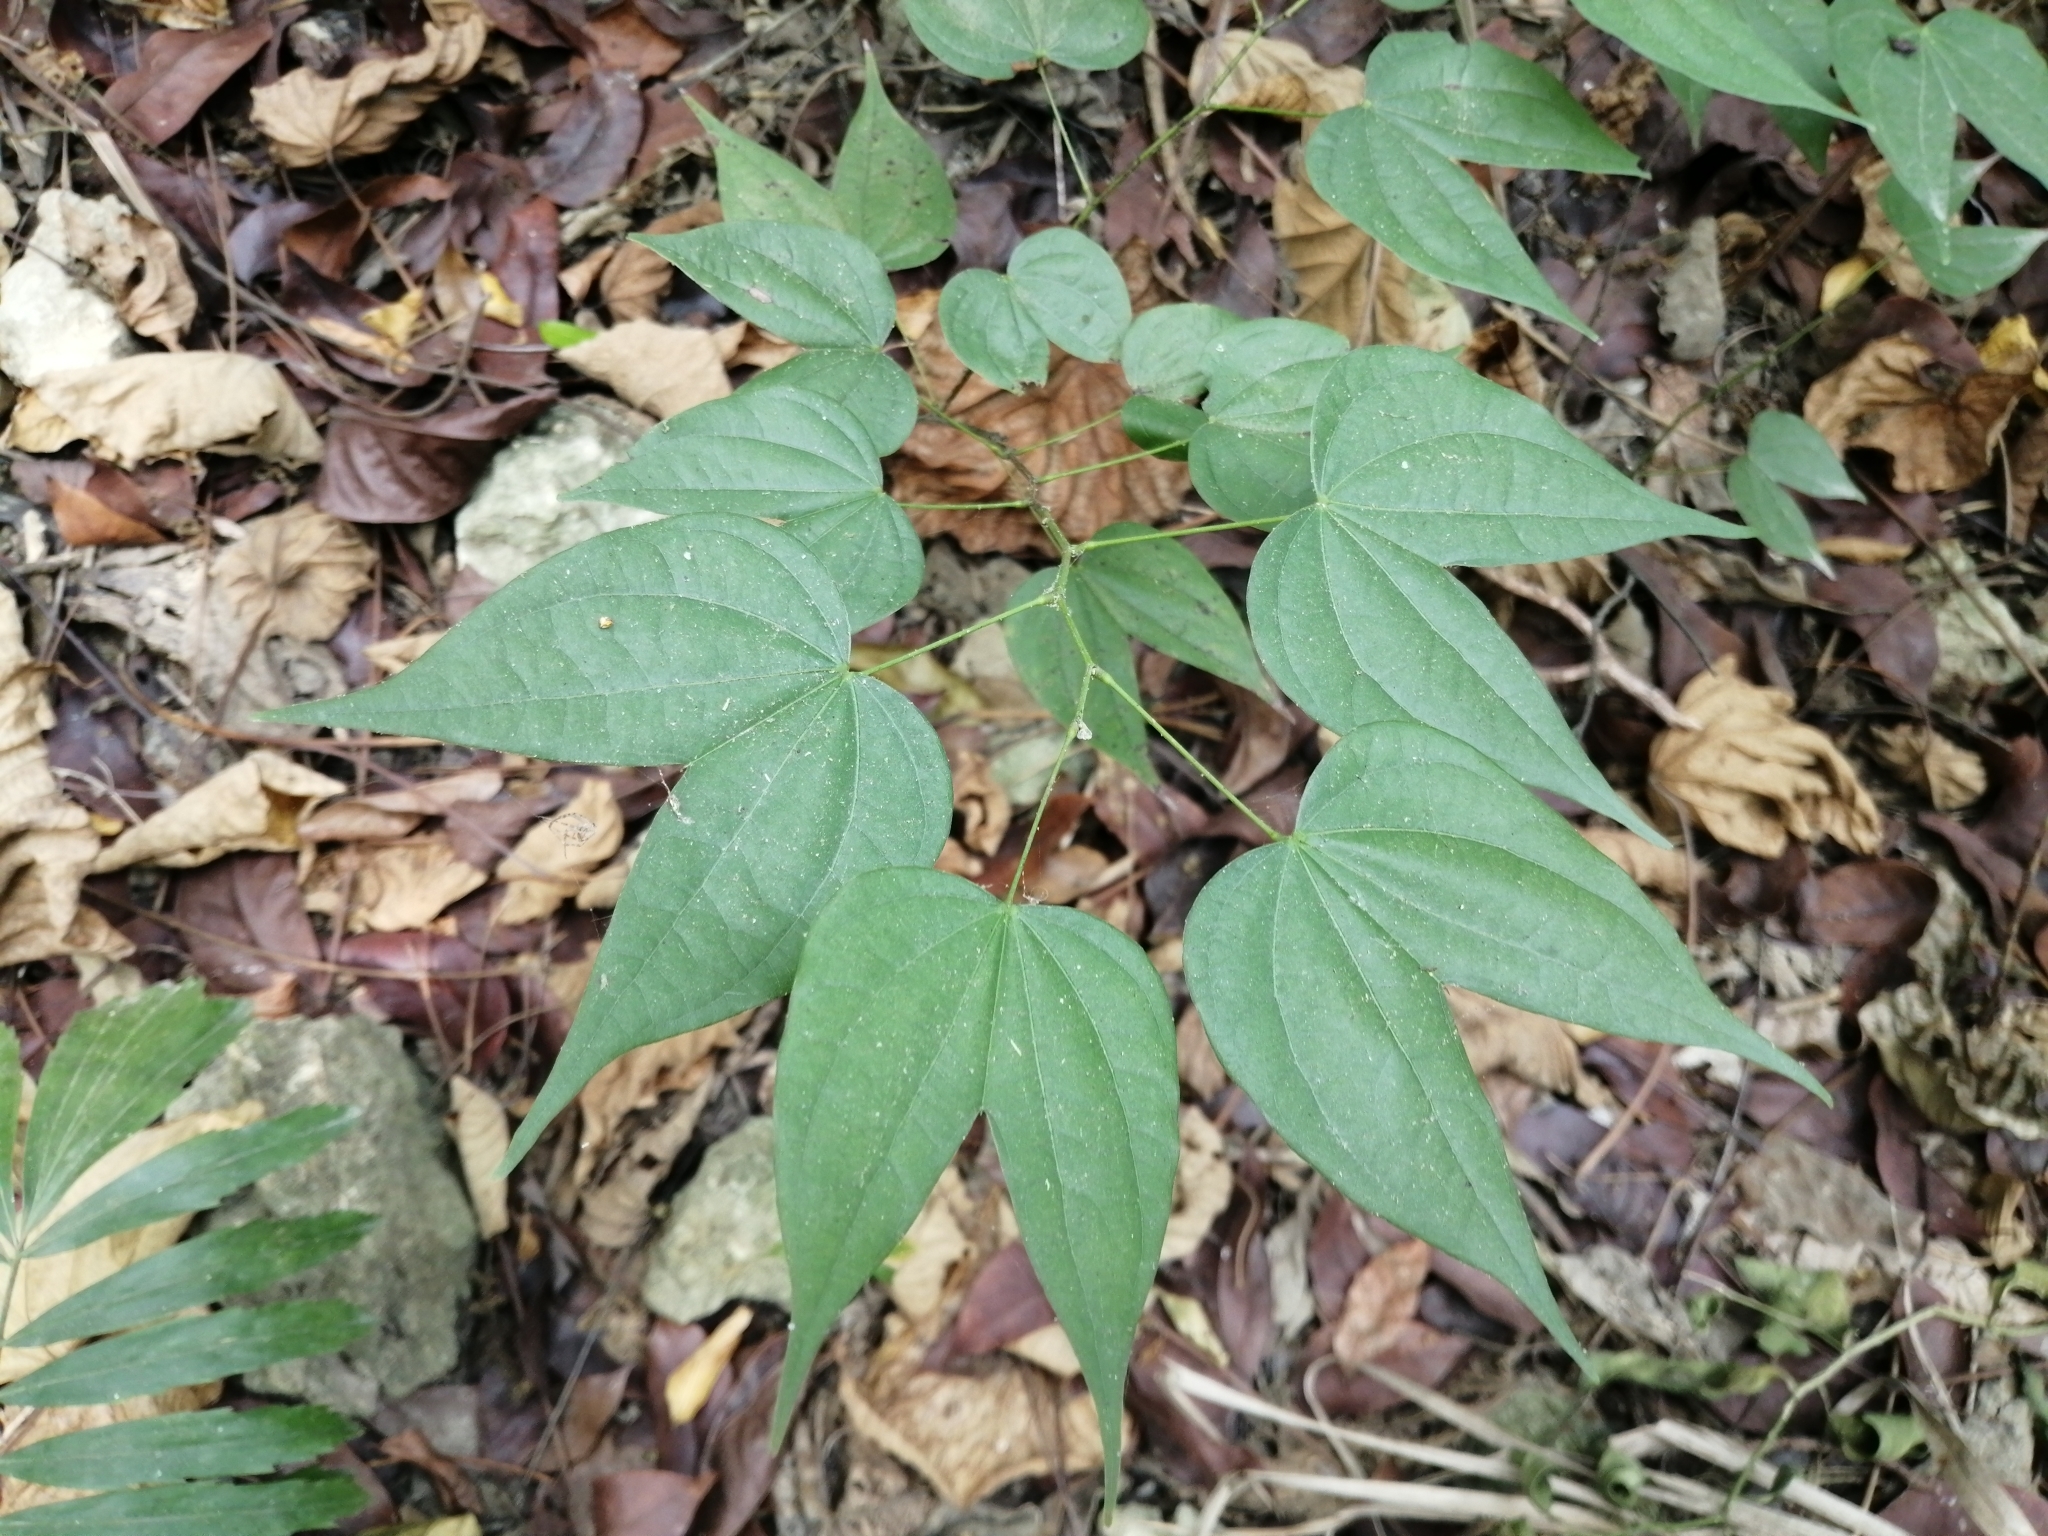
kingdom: Plantae
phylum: Tracheophyta
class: Magnoliopsida
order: Fabales
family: Fabaceae
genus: Phanera
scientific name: Phanera championii
